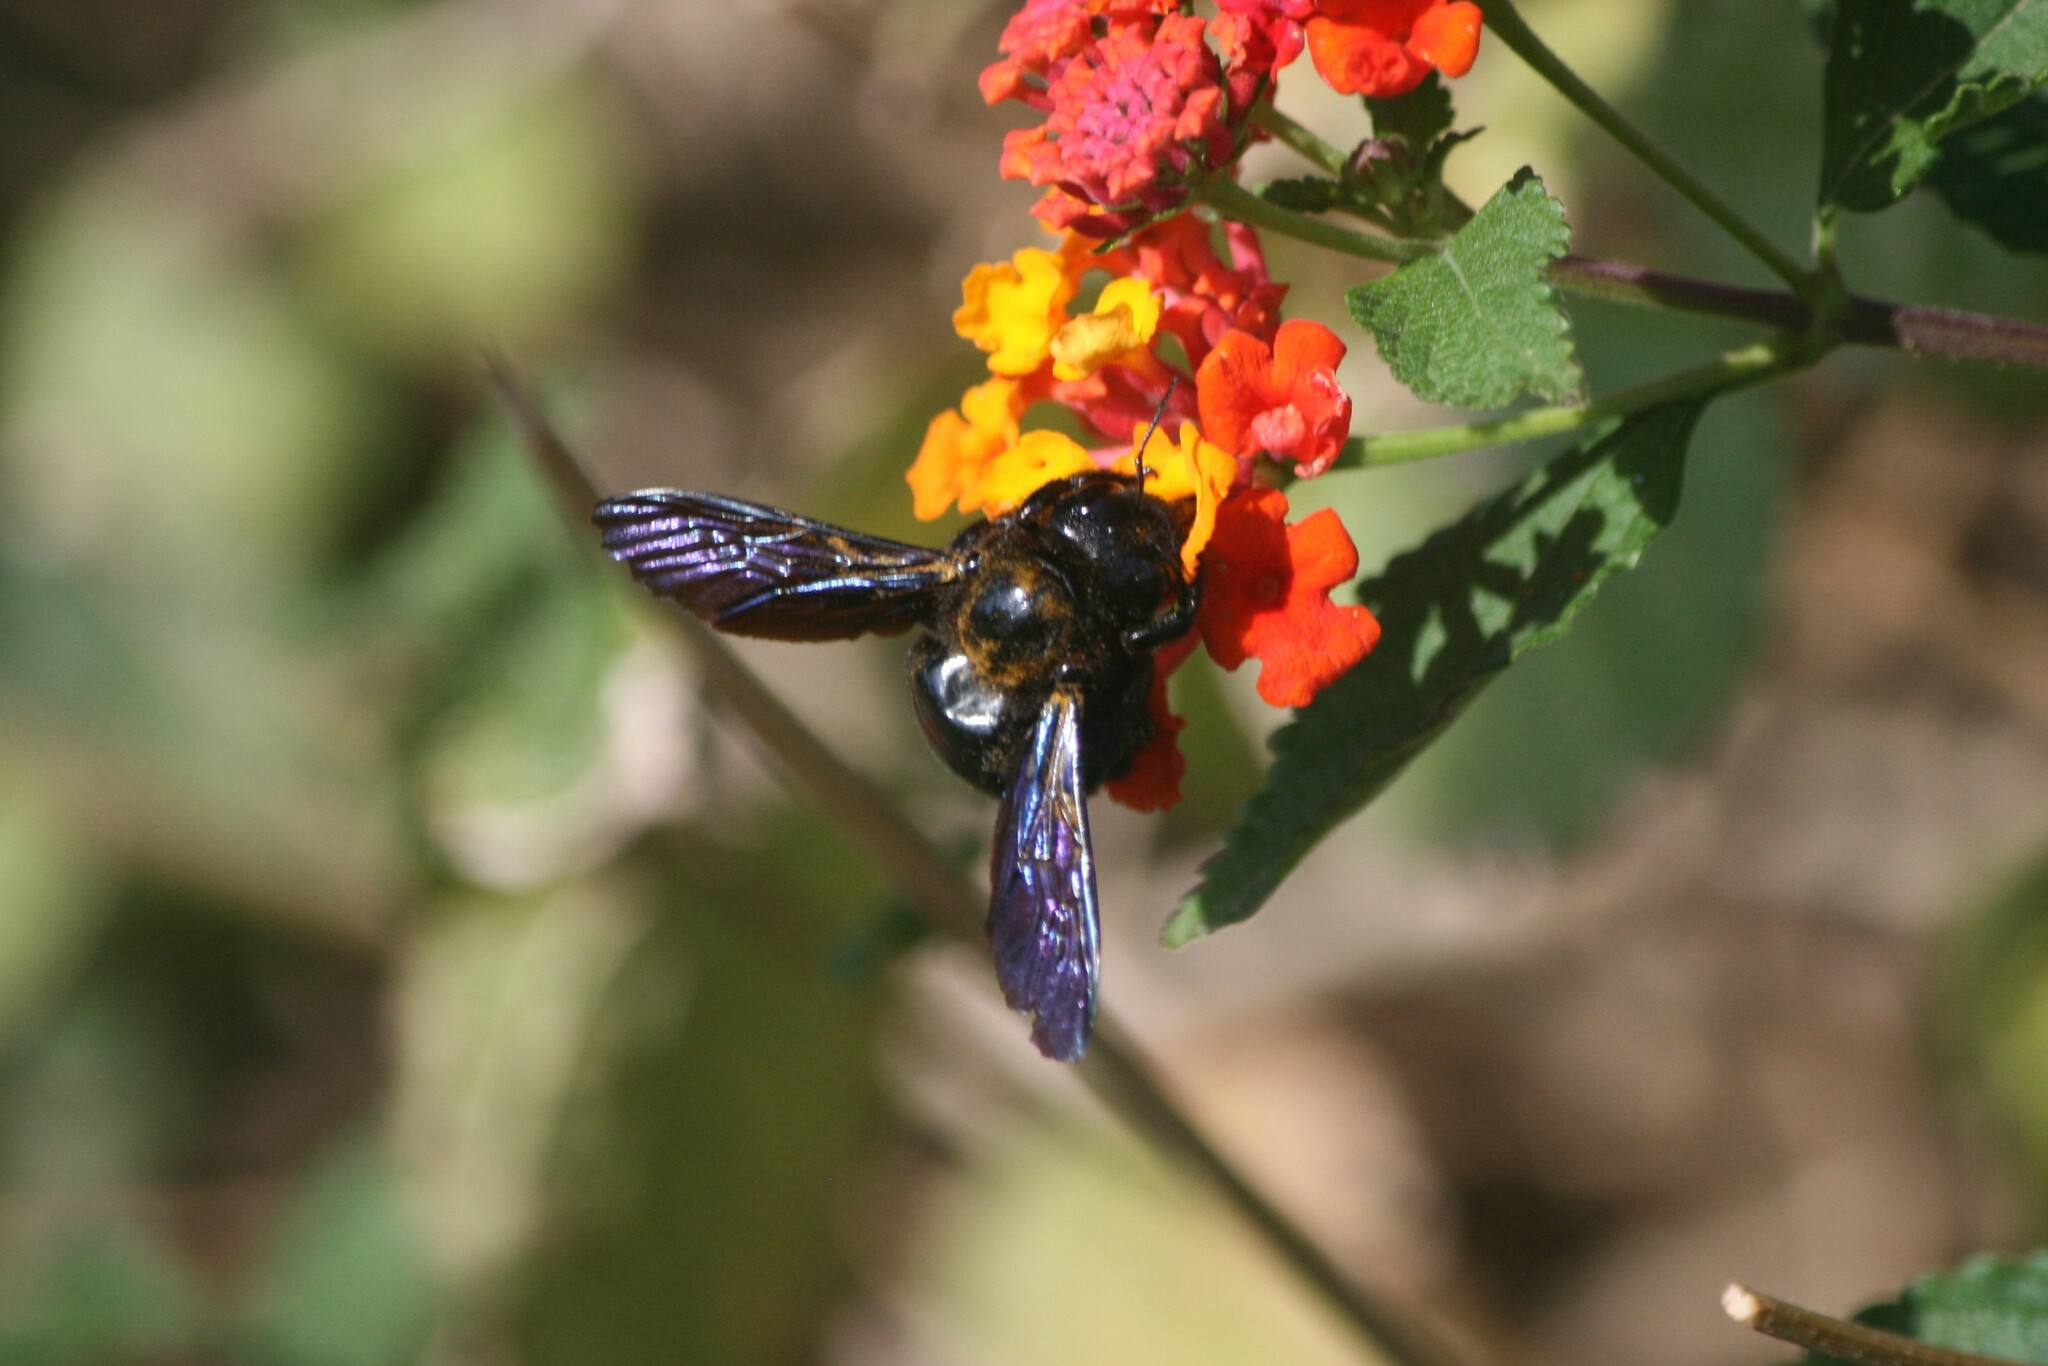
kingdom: Animalia
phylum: Arthropoda
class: Insecta
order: Hymenoptera
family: Apidae
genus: Xylocopa
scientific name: Xylocopa violacea
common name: Violet carpenter bee
